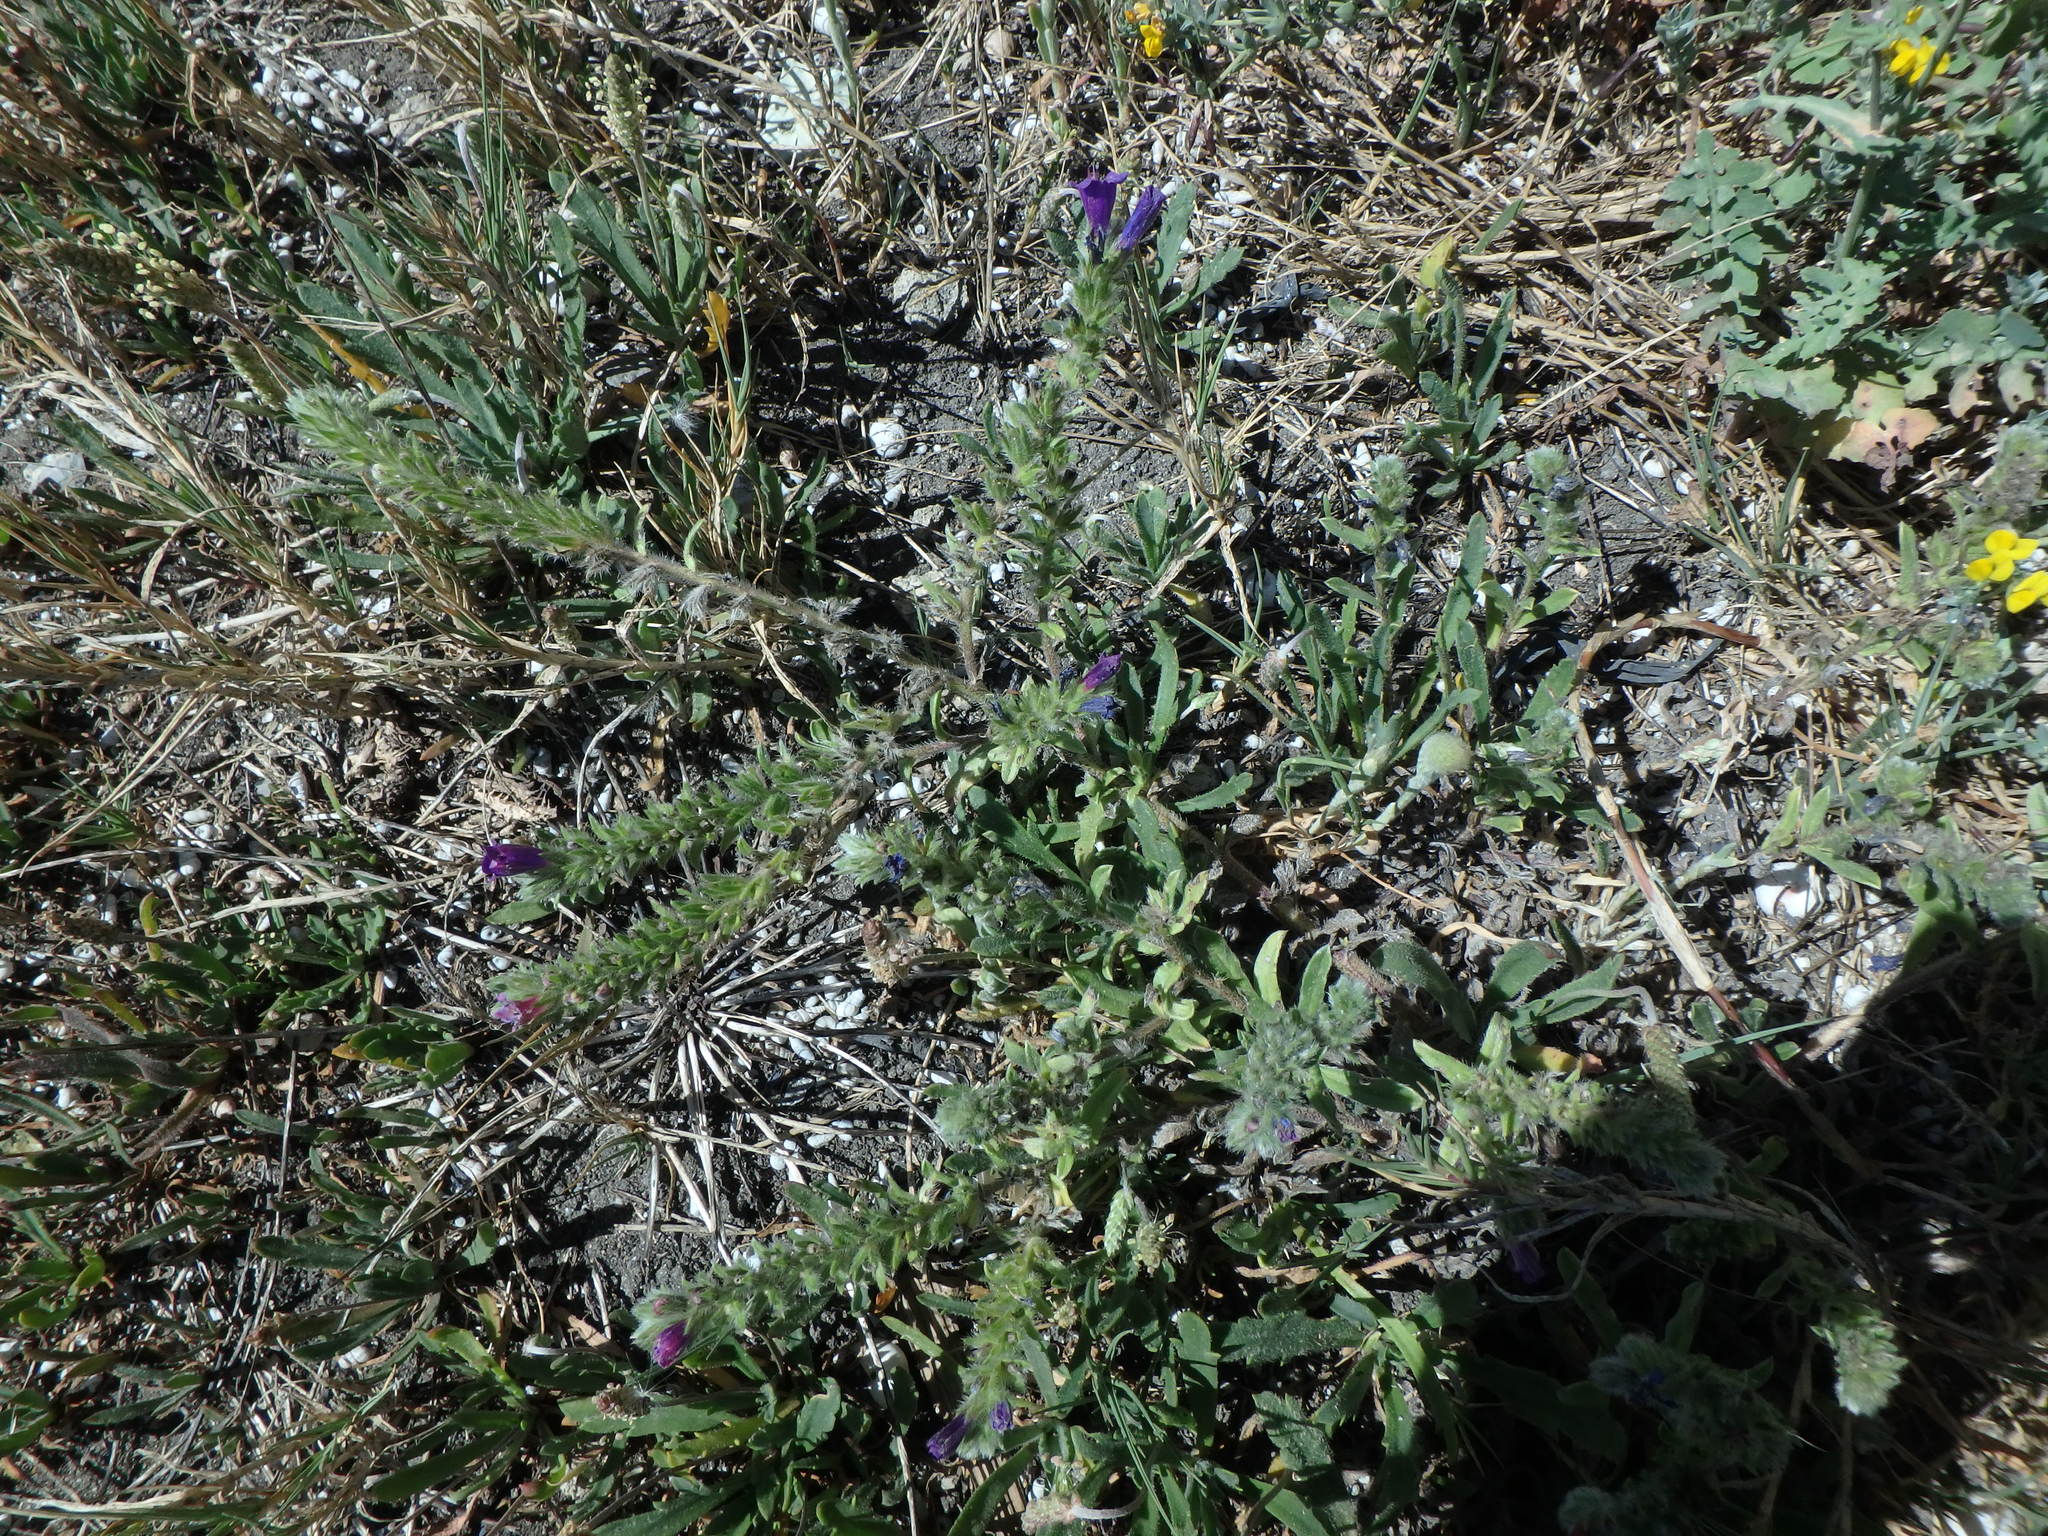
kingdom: Plantae
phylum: Tracheophyta
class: Magnoliopsida
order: Boraginales
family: Boraginaceae
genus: Echium
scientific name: Echium sabulicola
